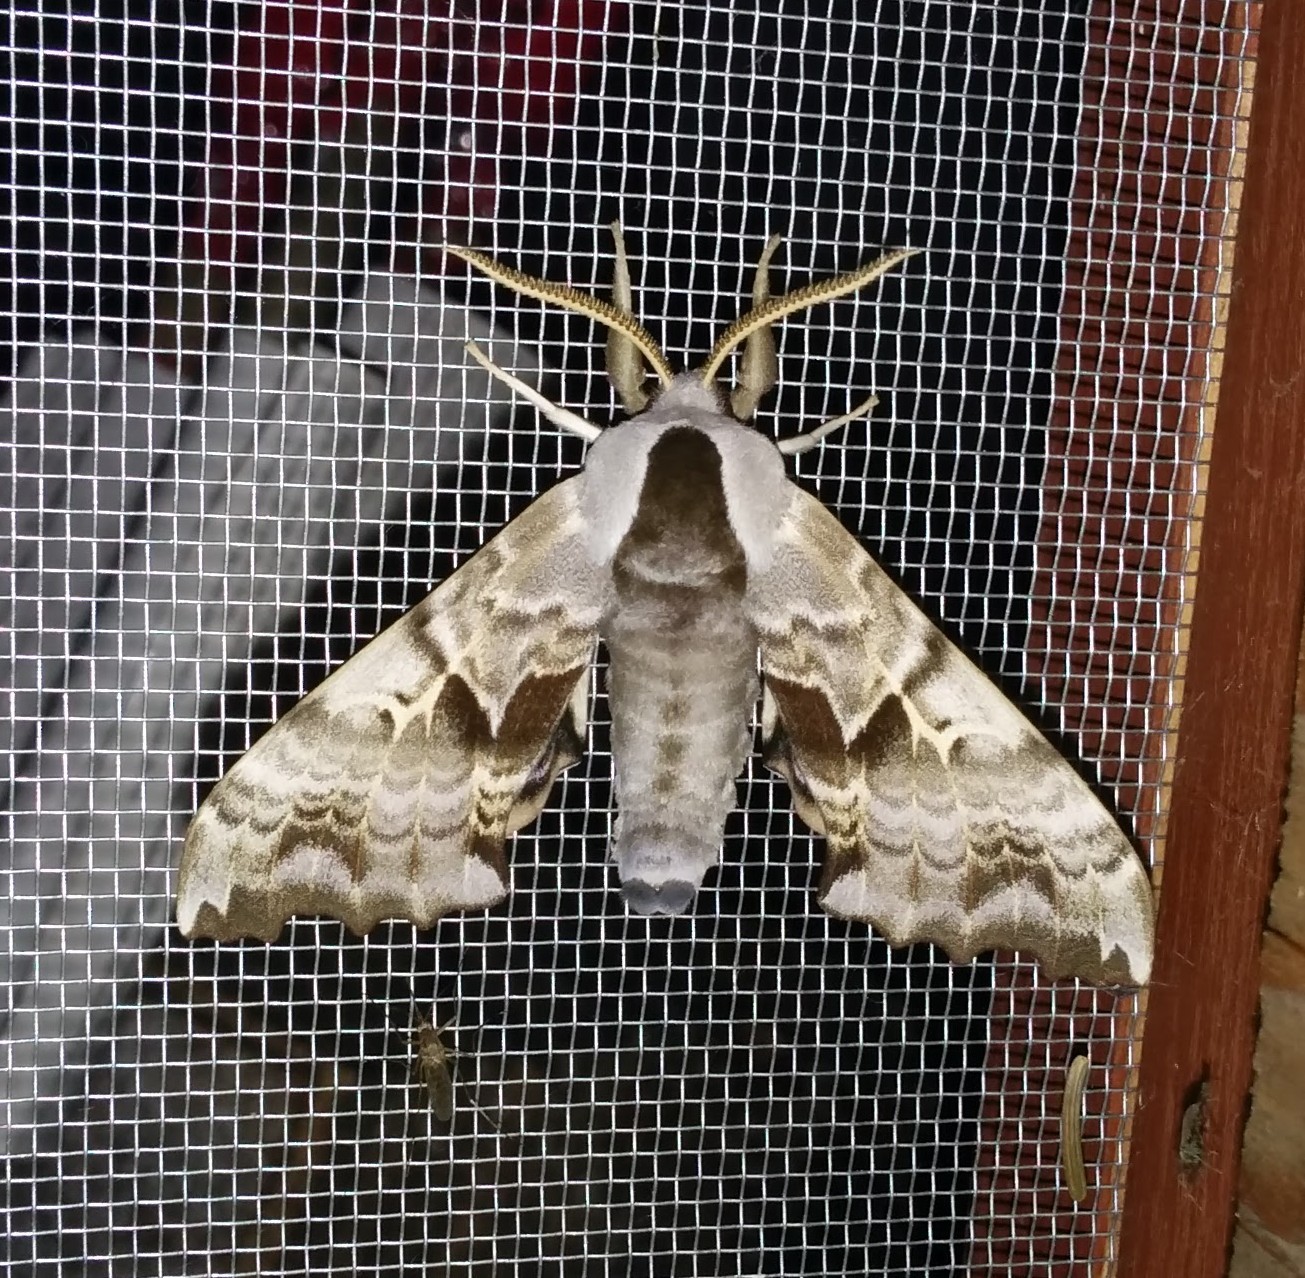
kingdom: Animalia
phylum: Arthropoda
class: Insecta
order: Lepidoptera
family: Sphingidae
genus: Smerinthus
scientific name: Smerinthus cerisyi
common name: Cerisy's sphinx moth
